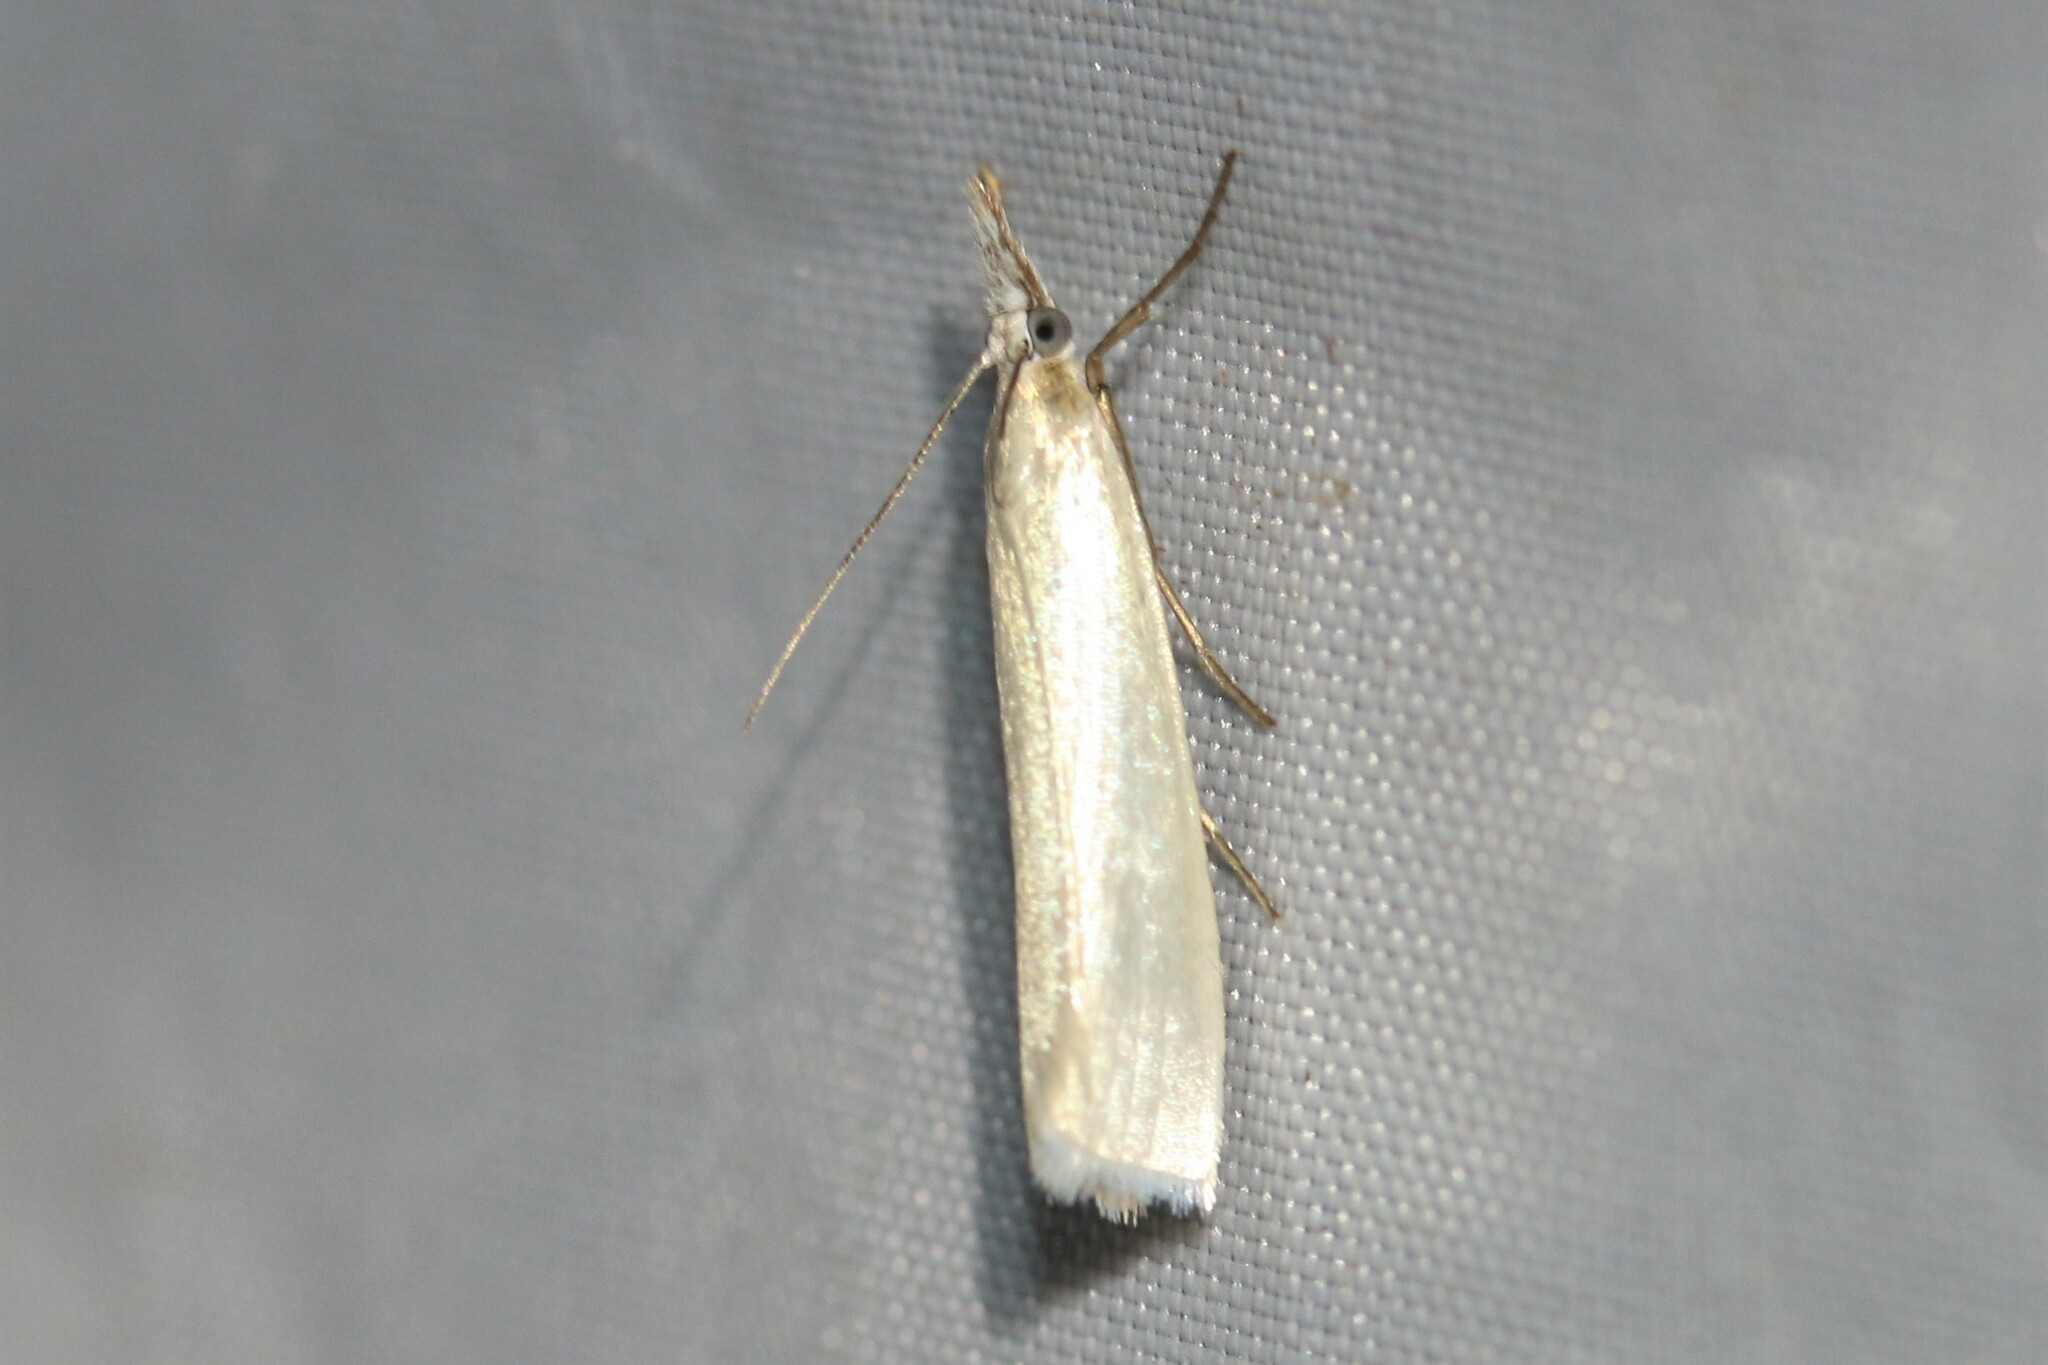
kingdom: Animalia
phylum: Arthropoda
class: Insecta
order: Lepidoptera
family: Crambidae
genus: Crambus
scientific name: Crambus perlellus
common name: Yellow satin veneer
